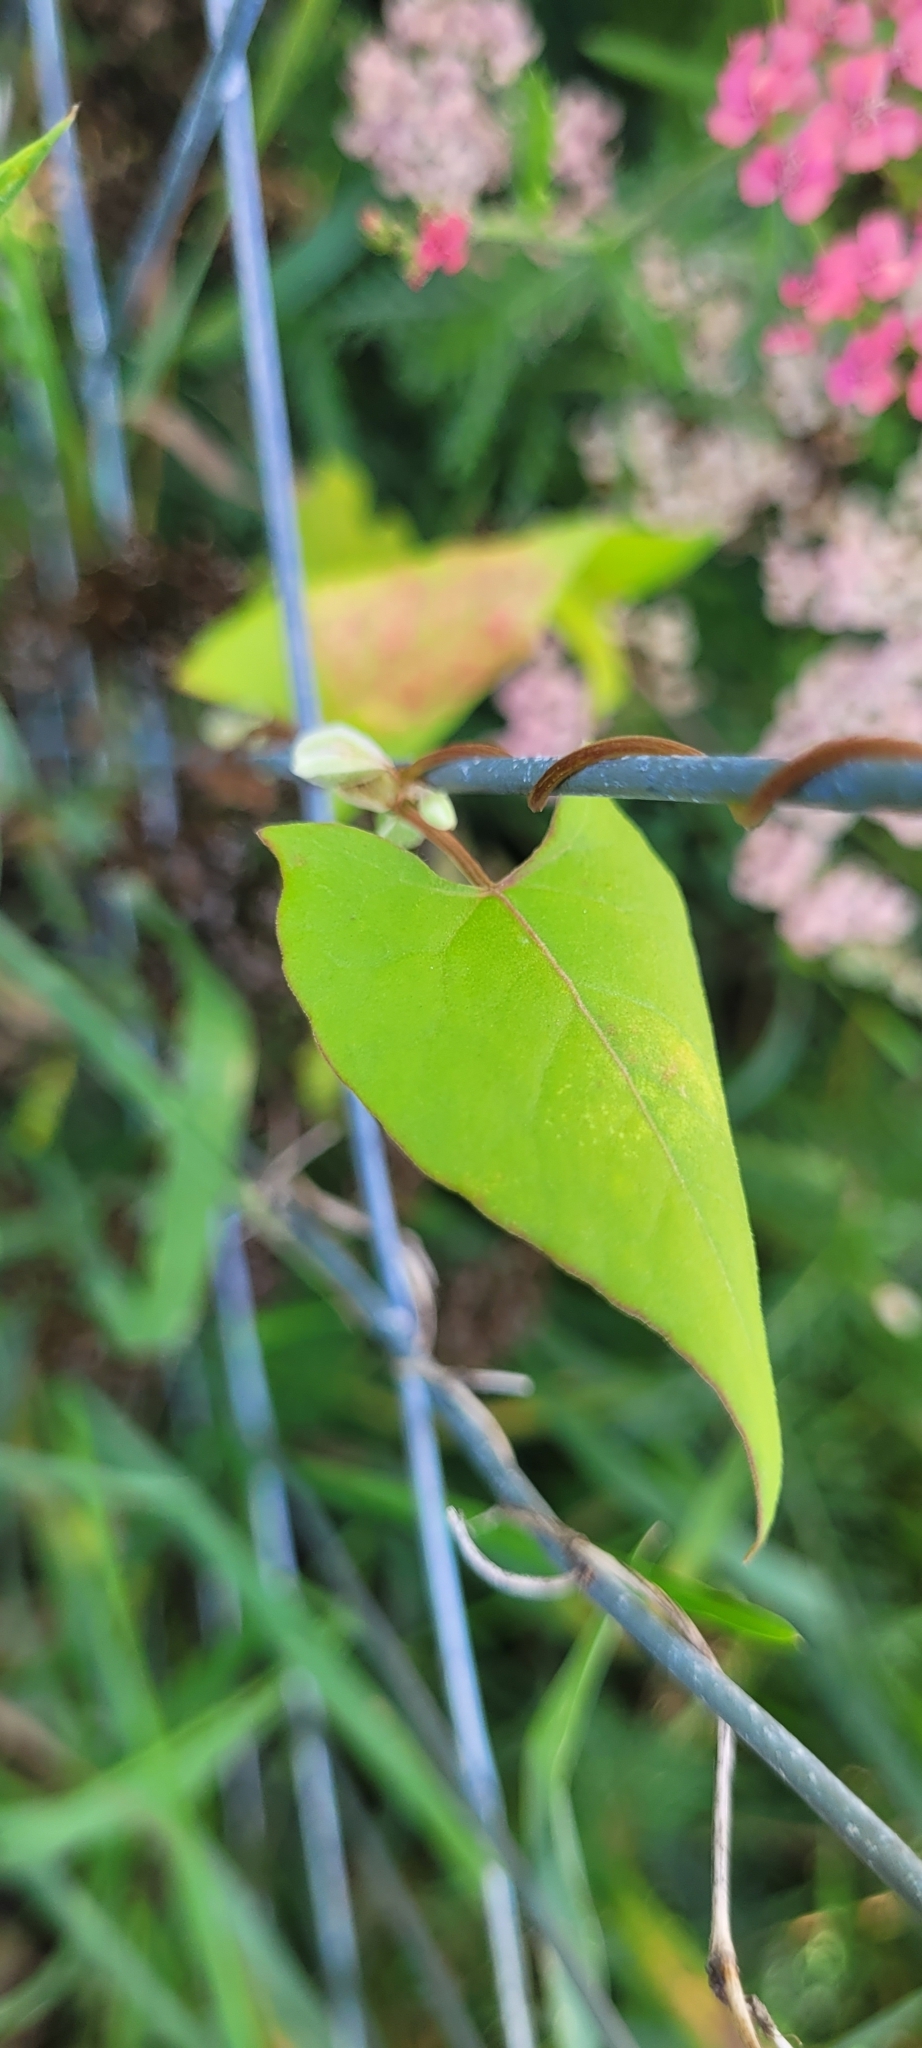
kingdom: Plantae
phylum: Tracheophyta
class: Magnoliopsida
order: Caryophyllales
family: Polygonaceae
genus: Fallopia
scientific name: Fallopia convolvulus
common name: Black bindweed
